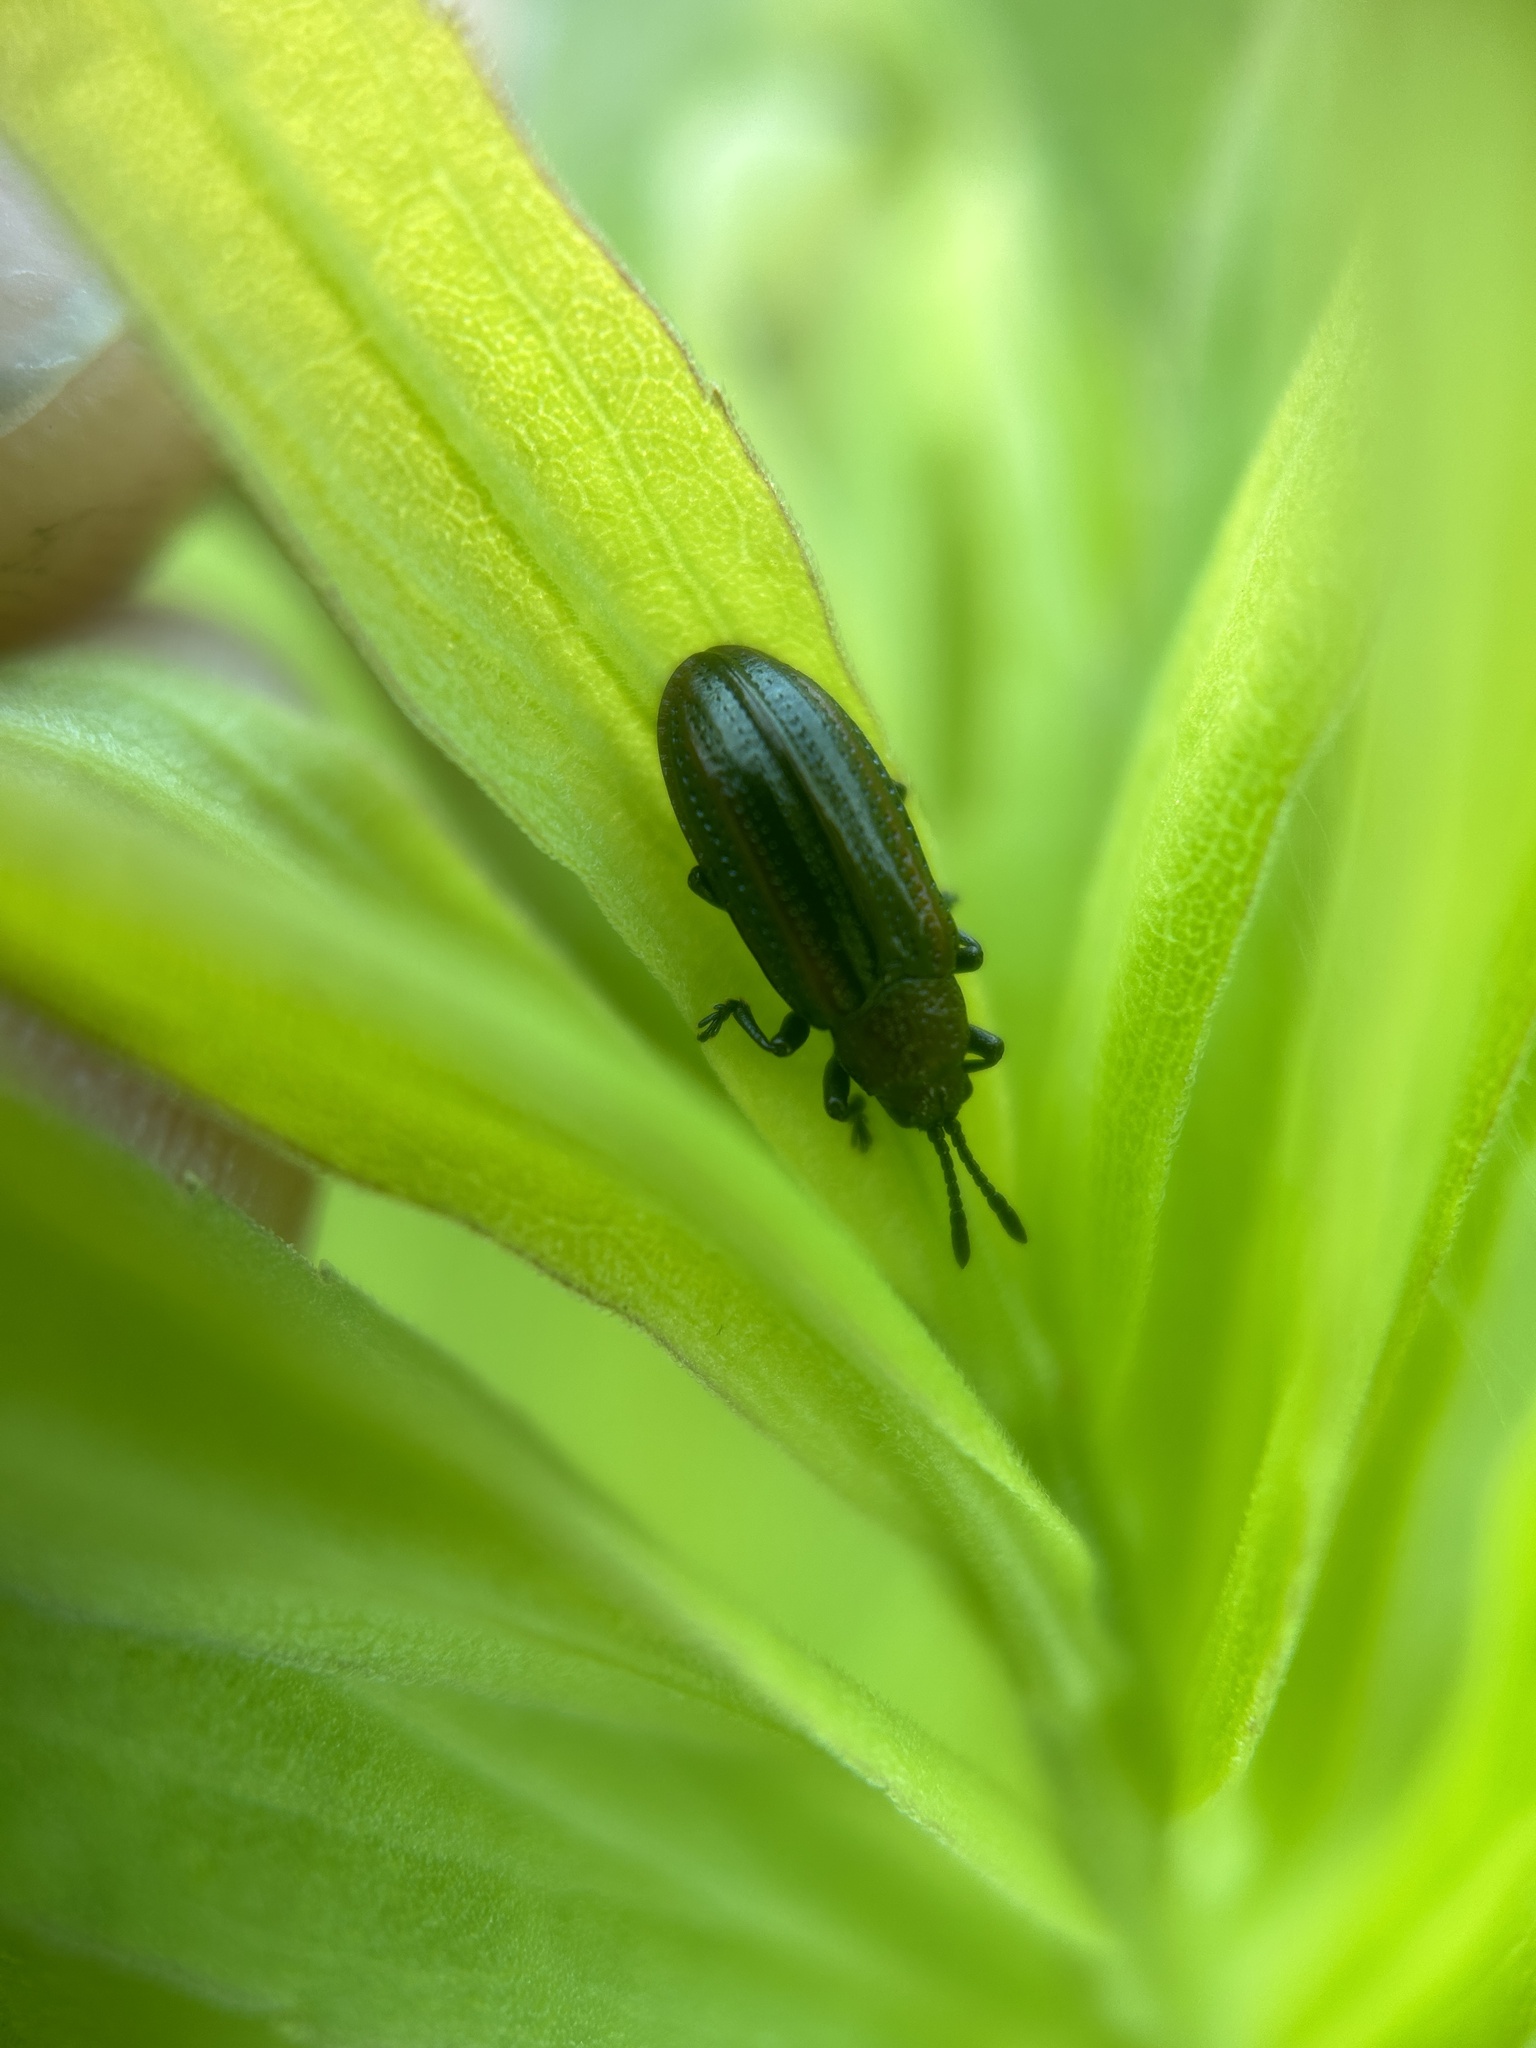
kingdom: Animalia
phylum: Arthropoda
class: Insecta
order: Coleoptera
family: Chrysomelidae
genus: Microrhopala
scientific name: Microrhopala vittata
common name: Goldenrod leaf miner beetle
